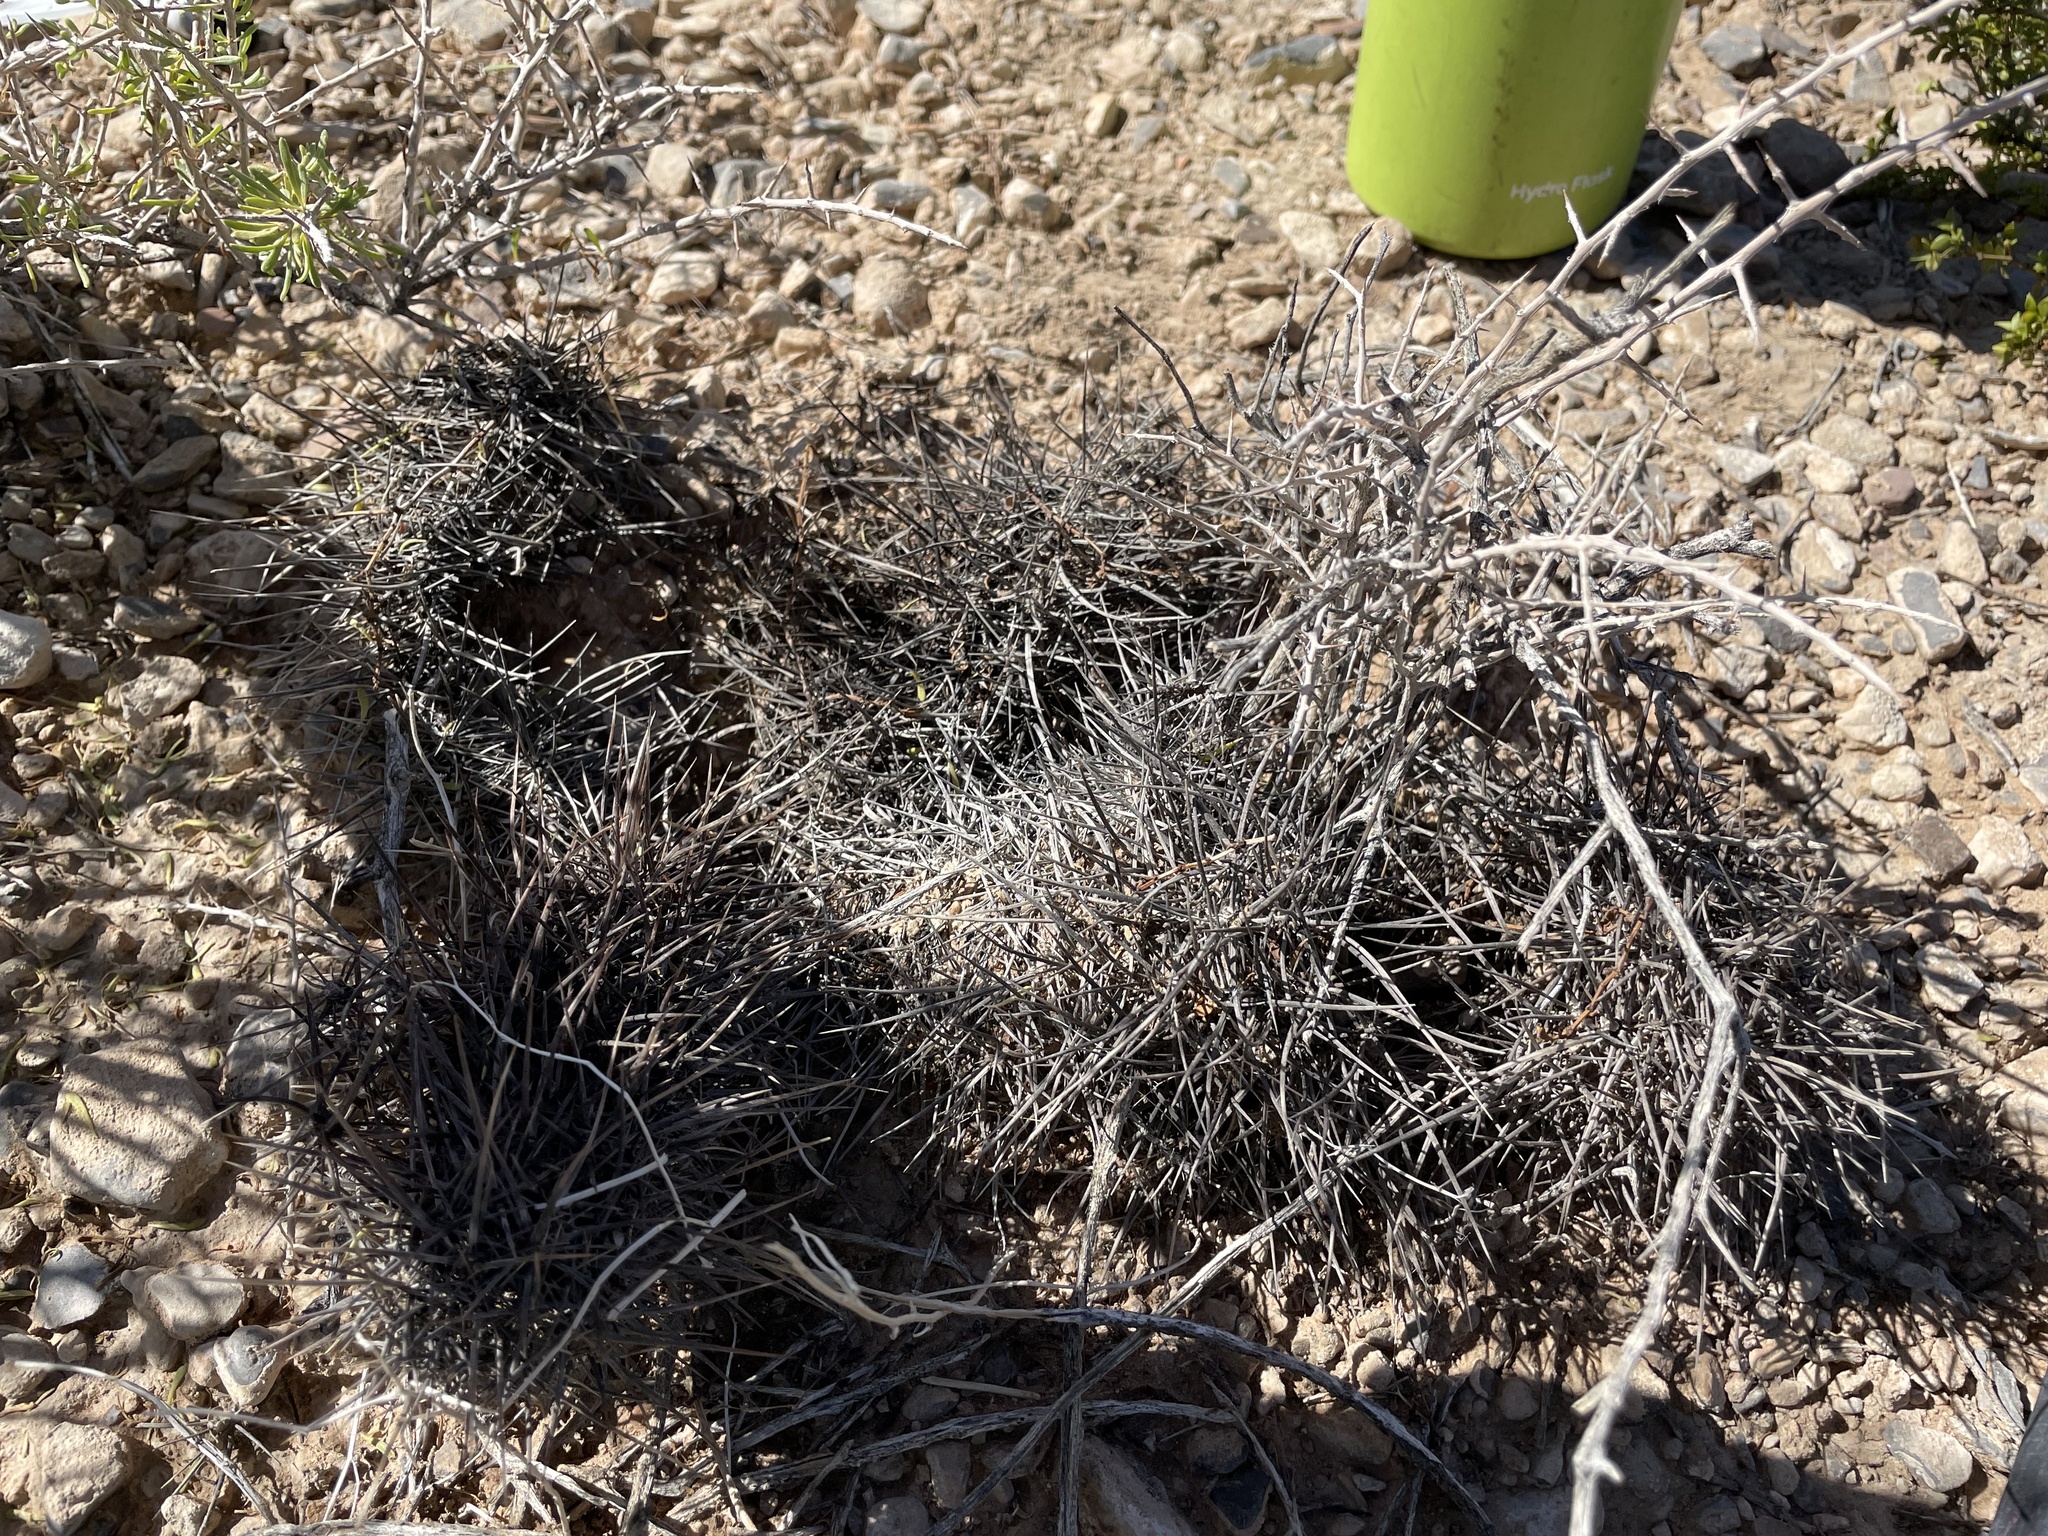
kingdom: Plantae
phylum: Tracheophyta
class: Magnoliopsida
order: Caryophyllales
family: Cactaceae
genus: Echinocereus
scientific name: Echinocereus engelmannii
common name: Engelmann's hedgehog cactus
